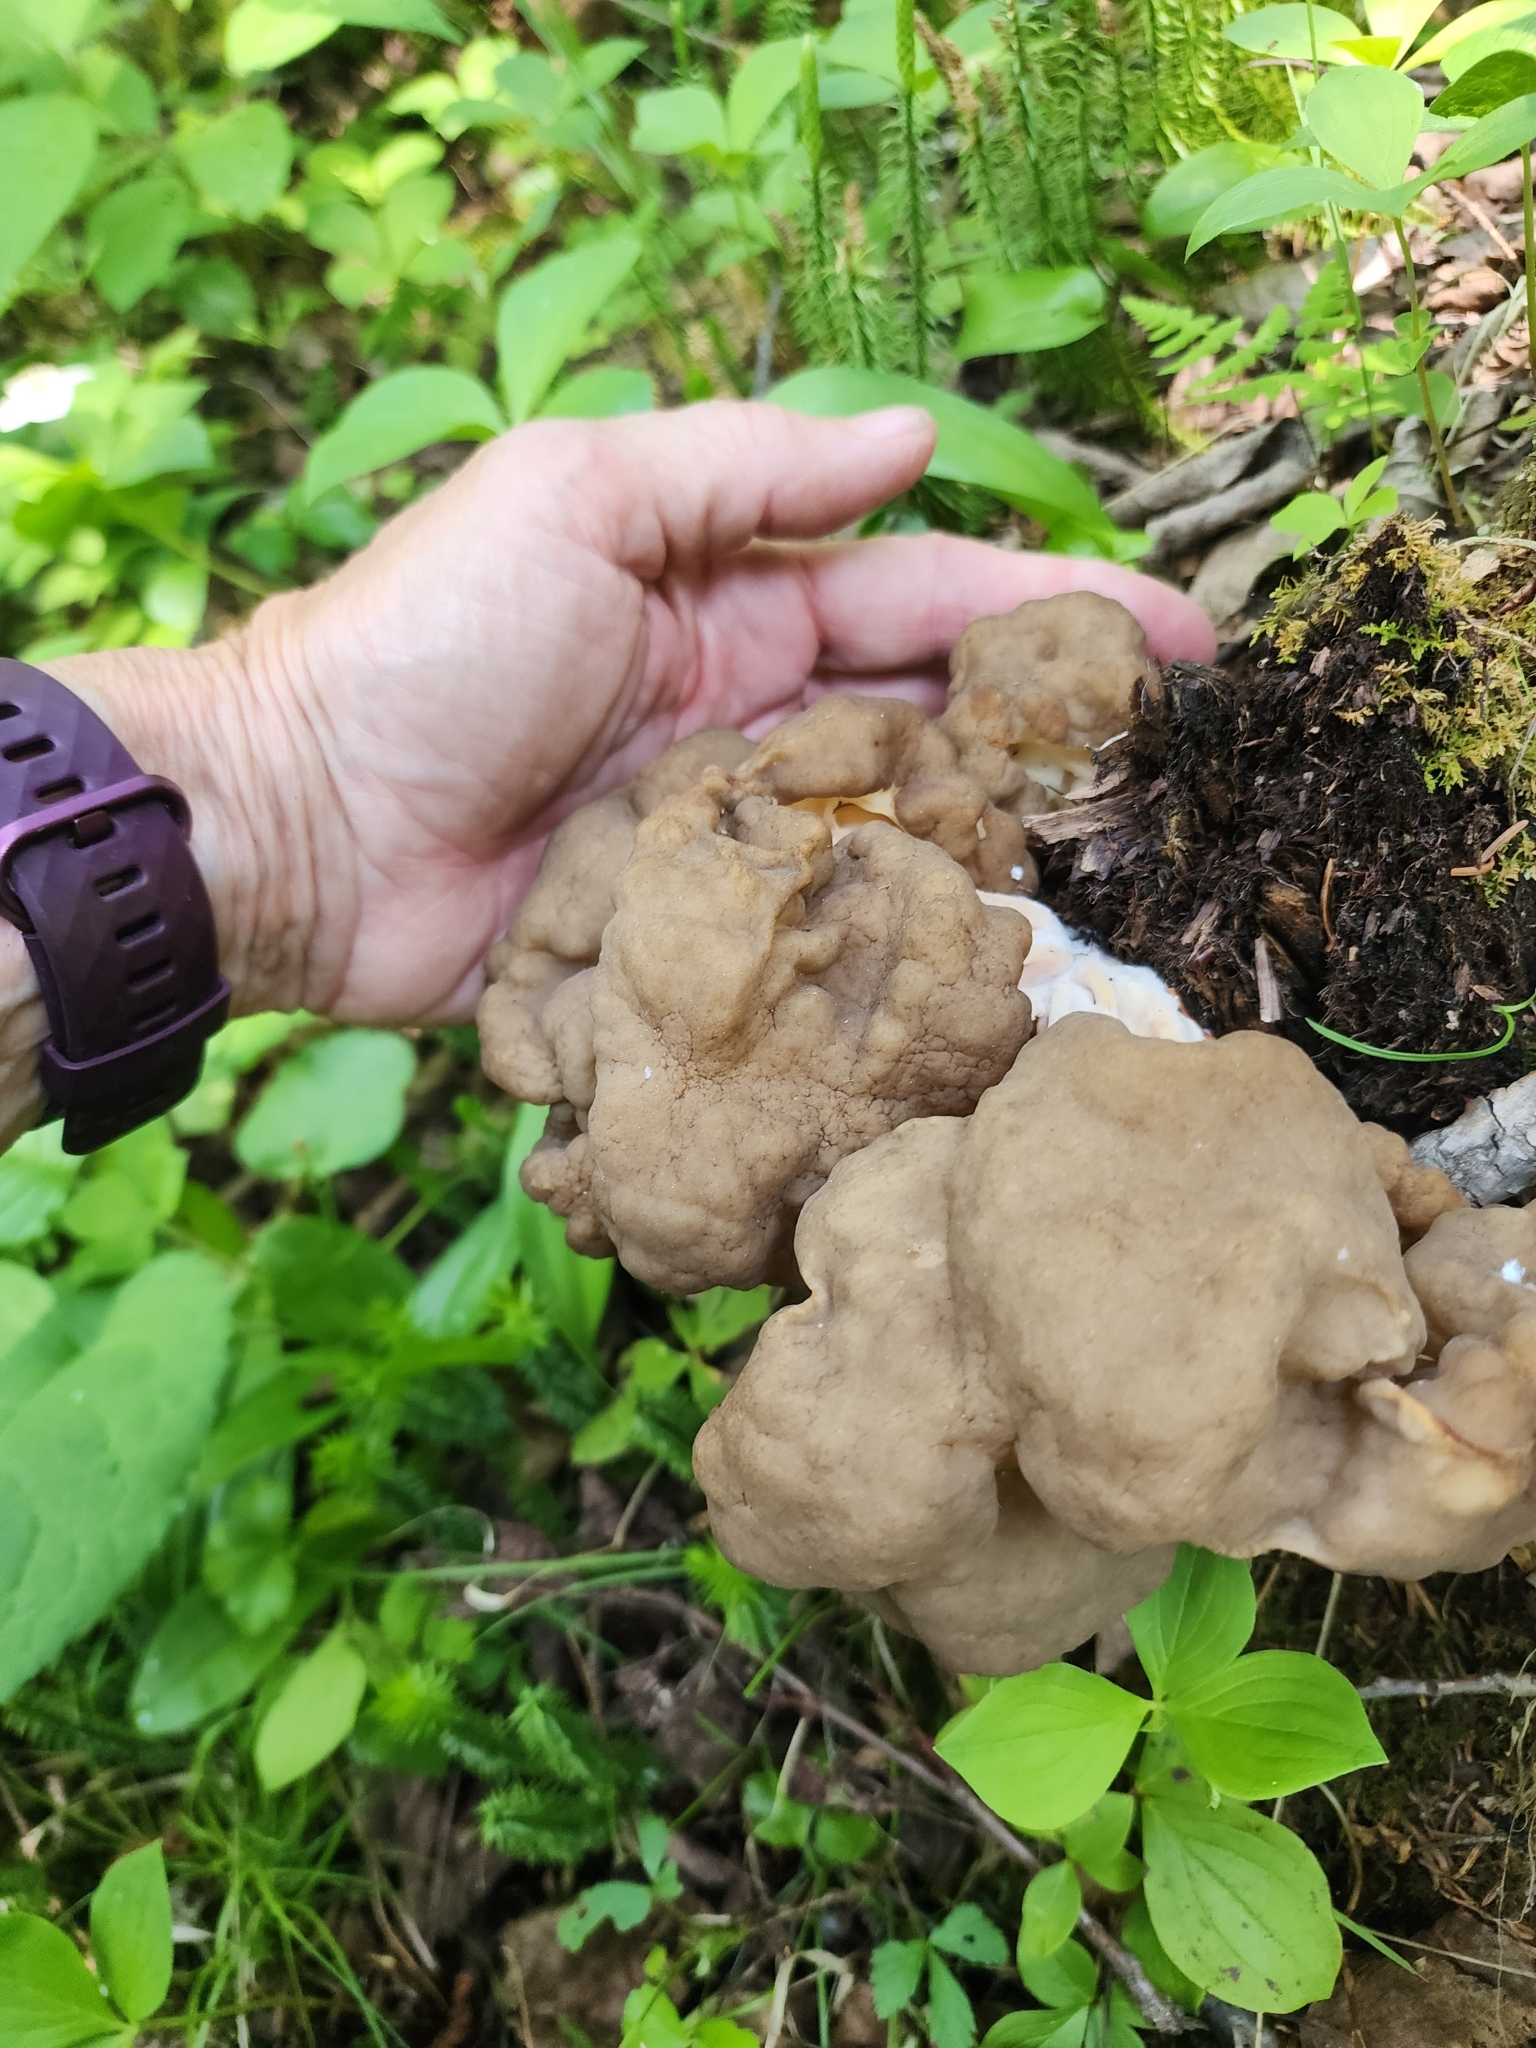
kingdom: Fungi
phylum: Ascomycota
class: Pezizomycetes
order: Pezizales
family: Discinaceae
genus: Gyromitra
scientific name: Gyromitra sphaerospora
